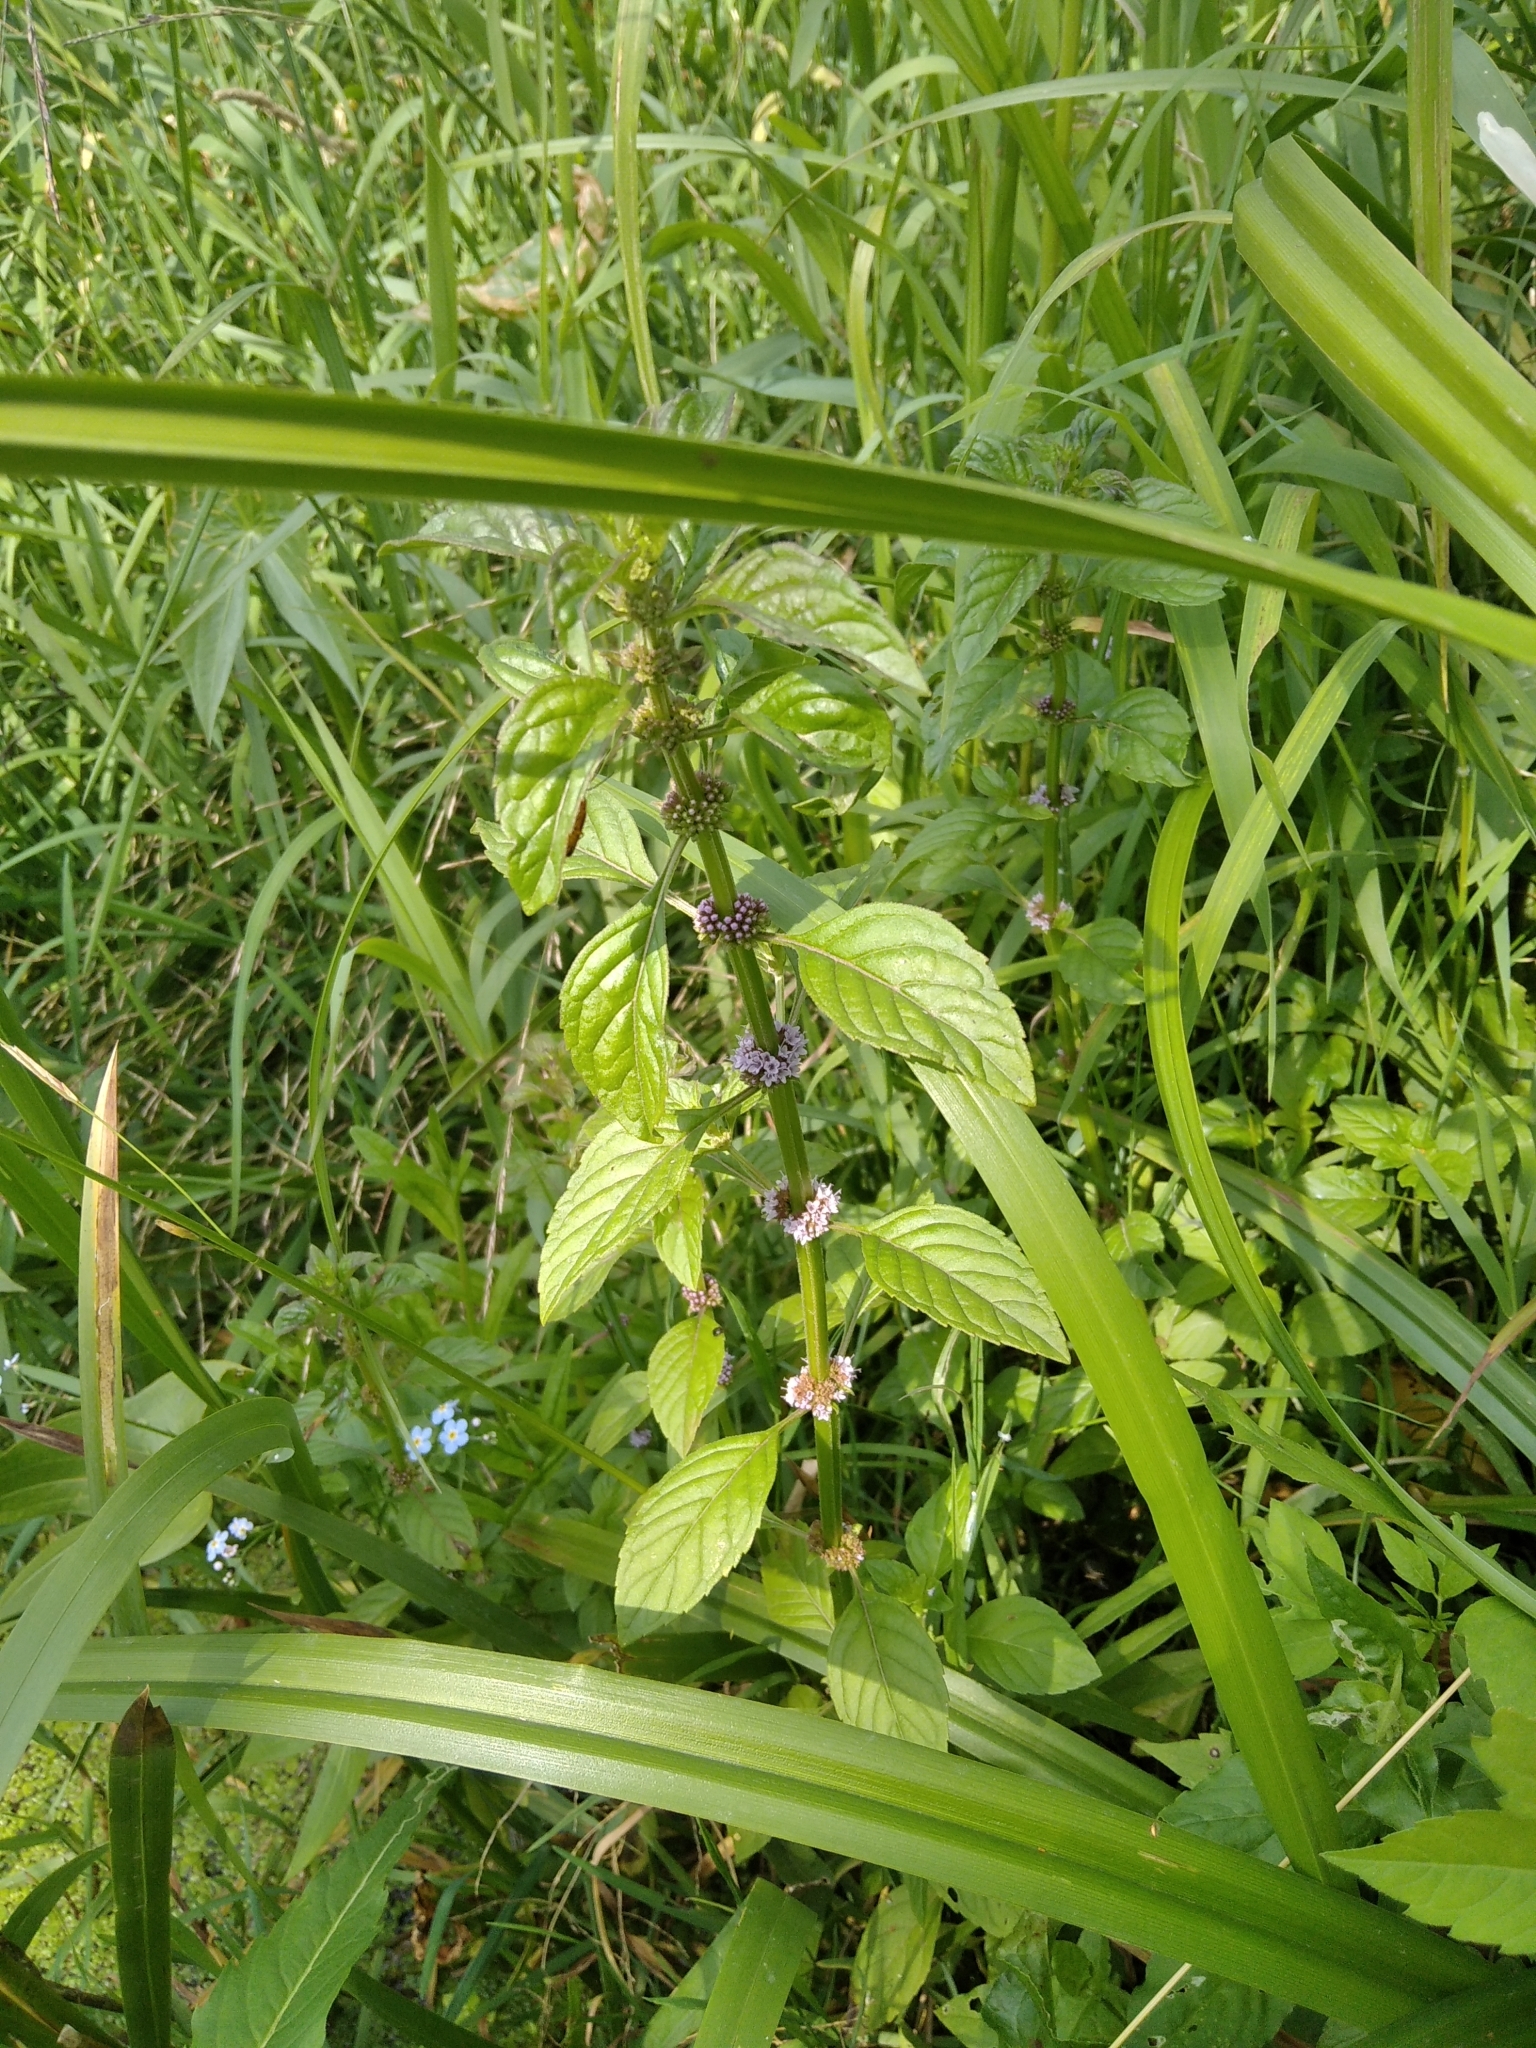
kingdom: Plantae
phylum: Tracheophyta
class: Magnoliopsida
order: Lamiales
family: Lamiaceae
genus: Mentha
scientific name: Mentha arvensis
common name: Corn mint
